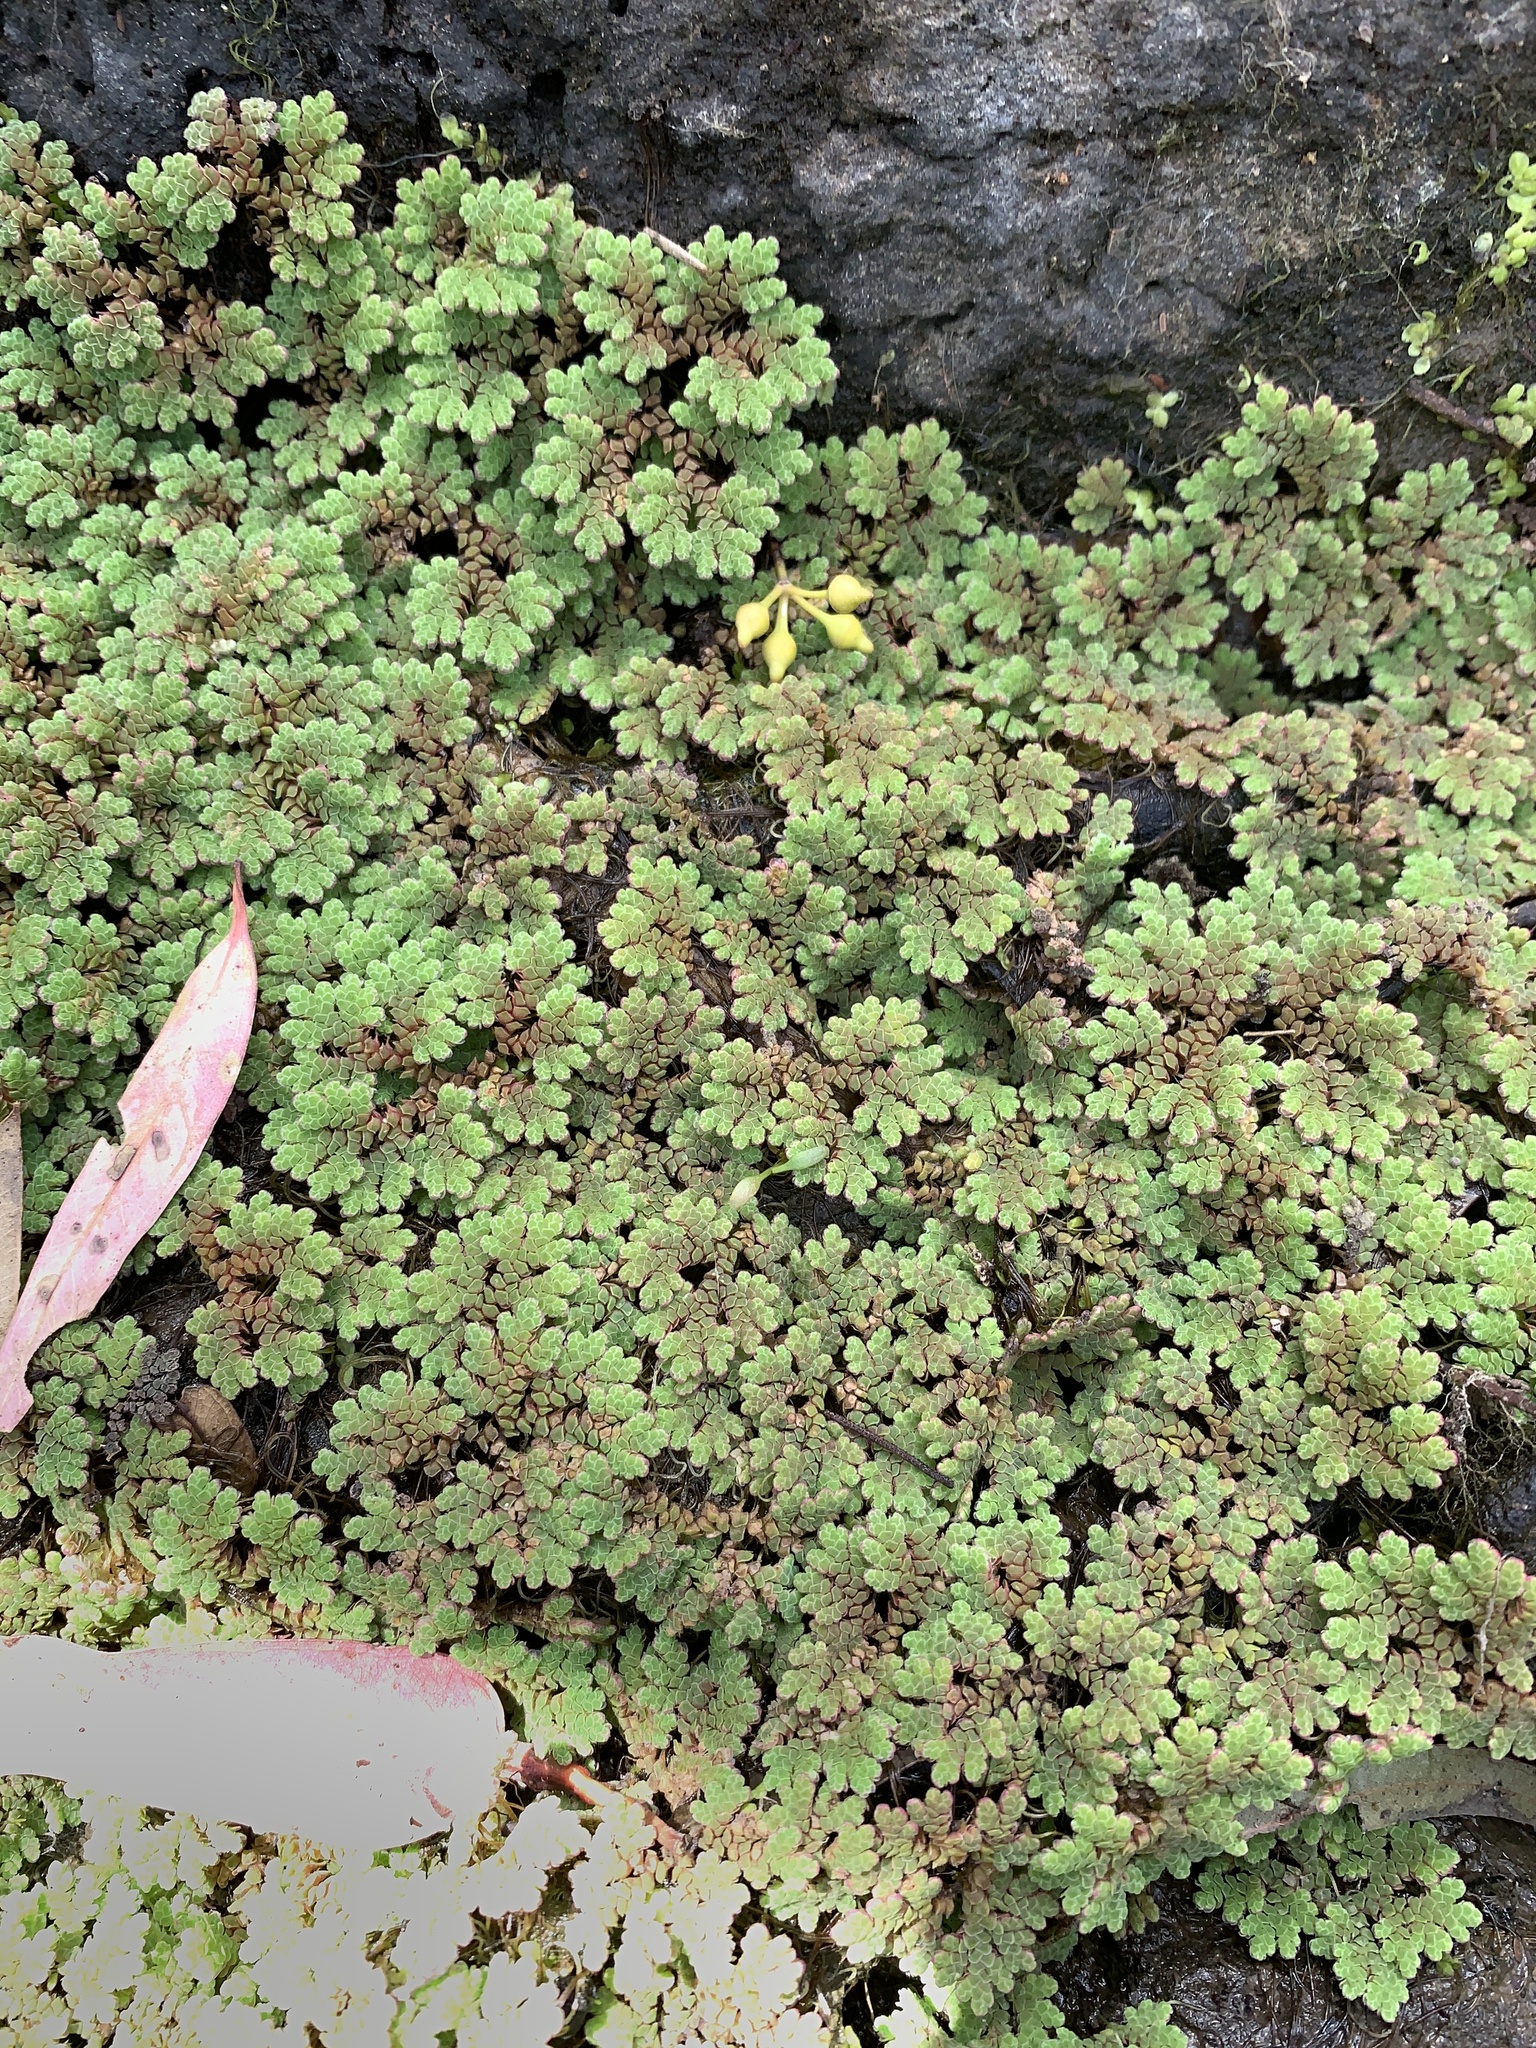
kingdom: Plantae
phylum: Tracheophyta
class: Polypodiopsida
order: Salviniales
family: Salviniaceae
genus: Azolla
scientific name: Azolla rubra
